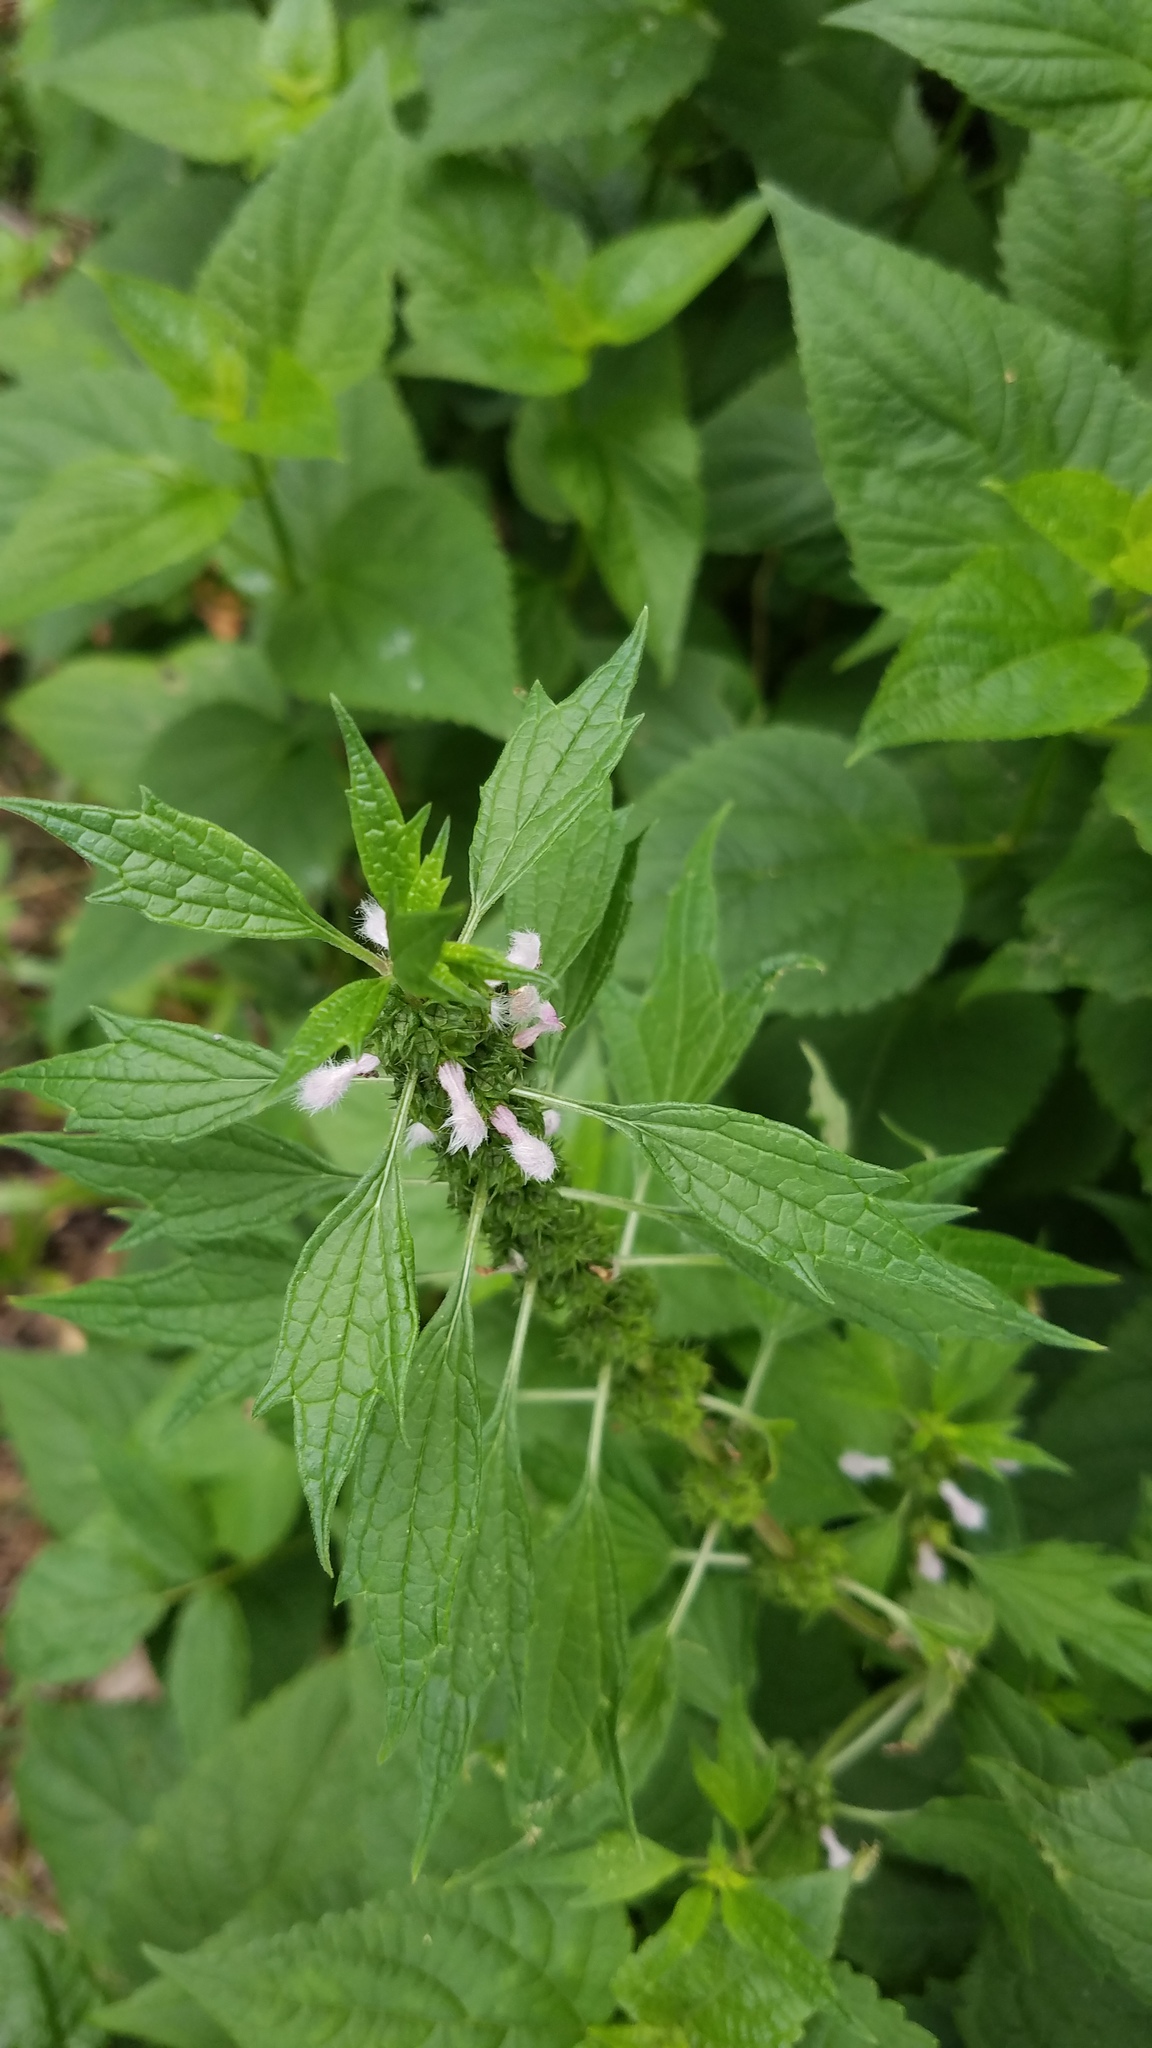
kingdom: Plantae
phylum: Tracheophyta
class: Magnoliopsida
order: Lamiales
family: Lamiaceae
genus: Leonurus
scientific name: Leonurus cardiaca
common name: Motherwort
